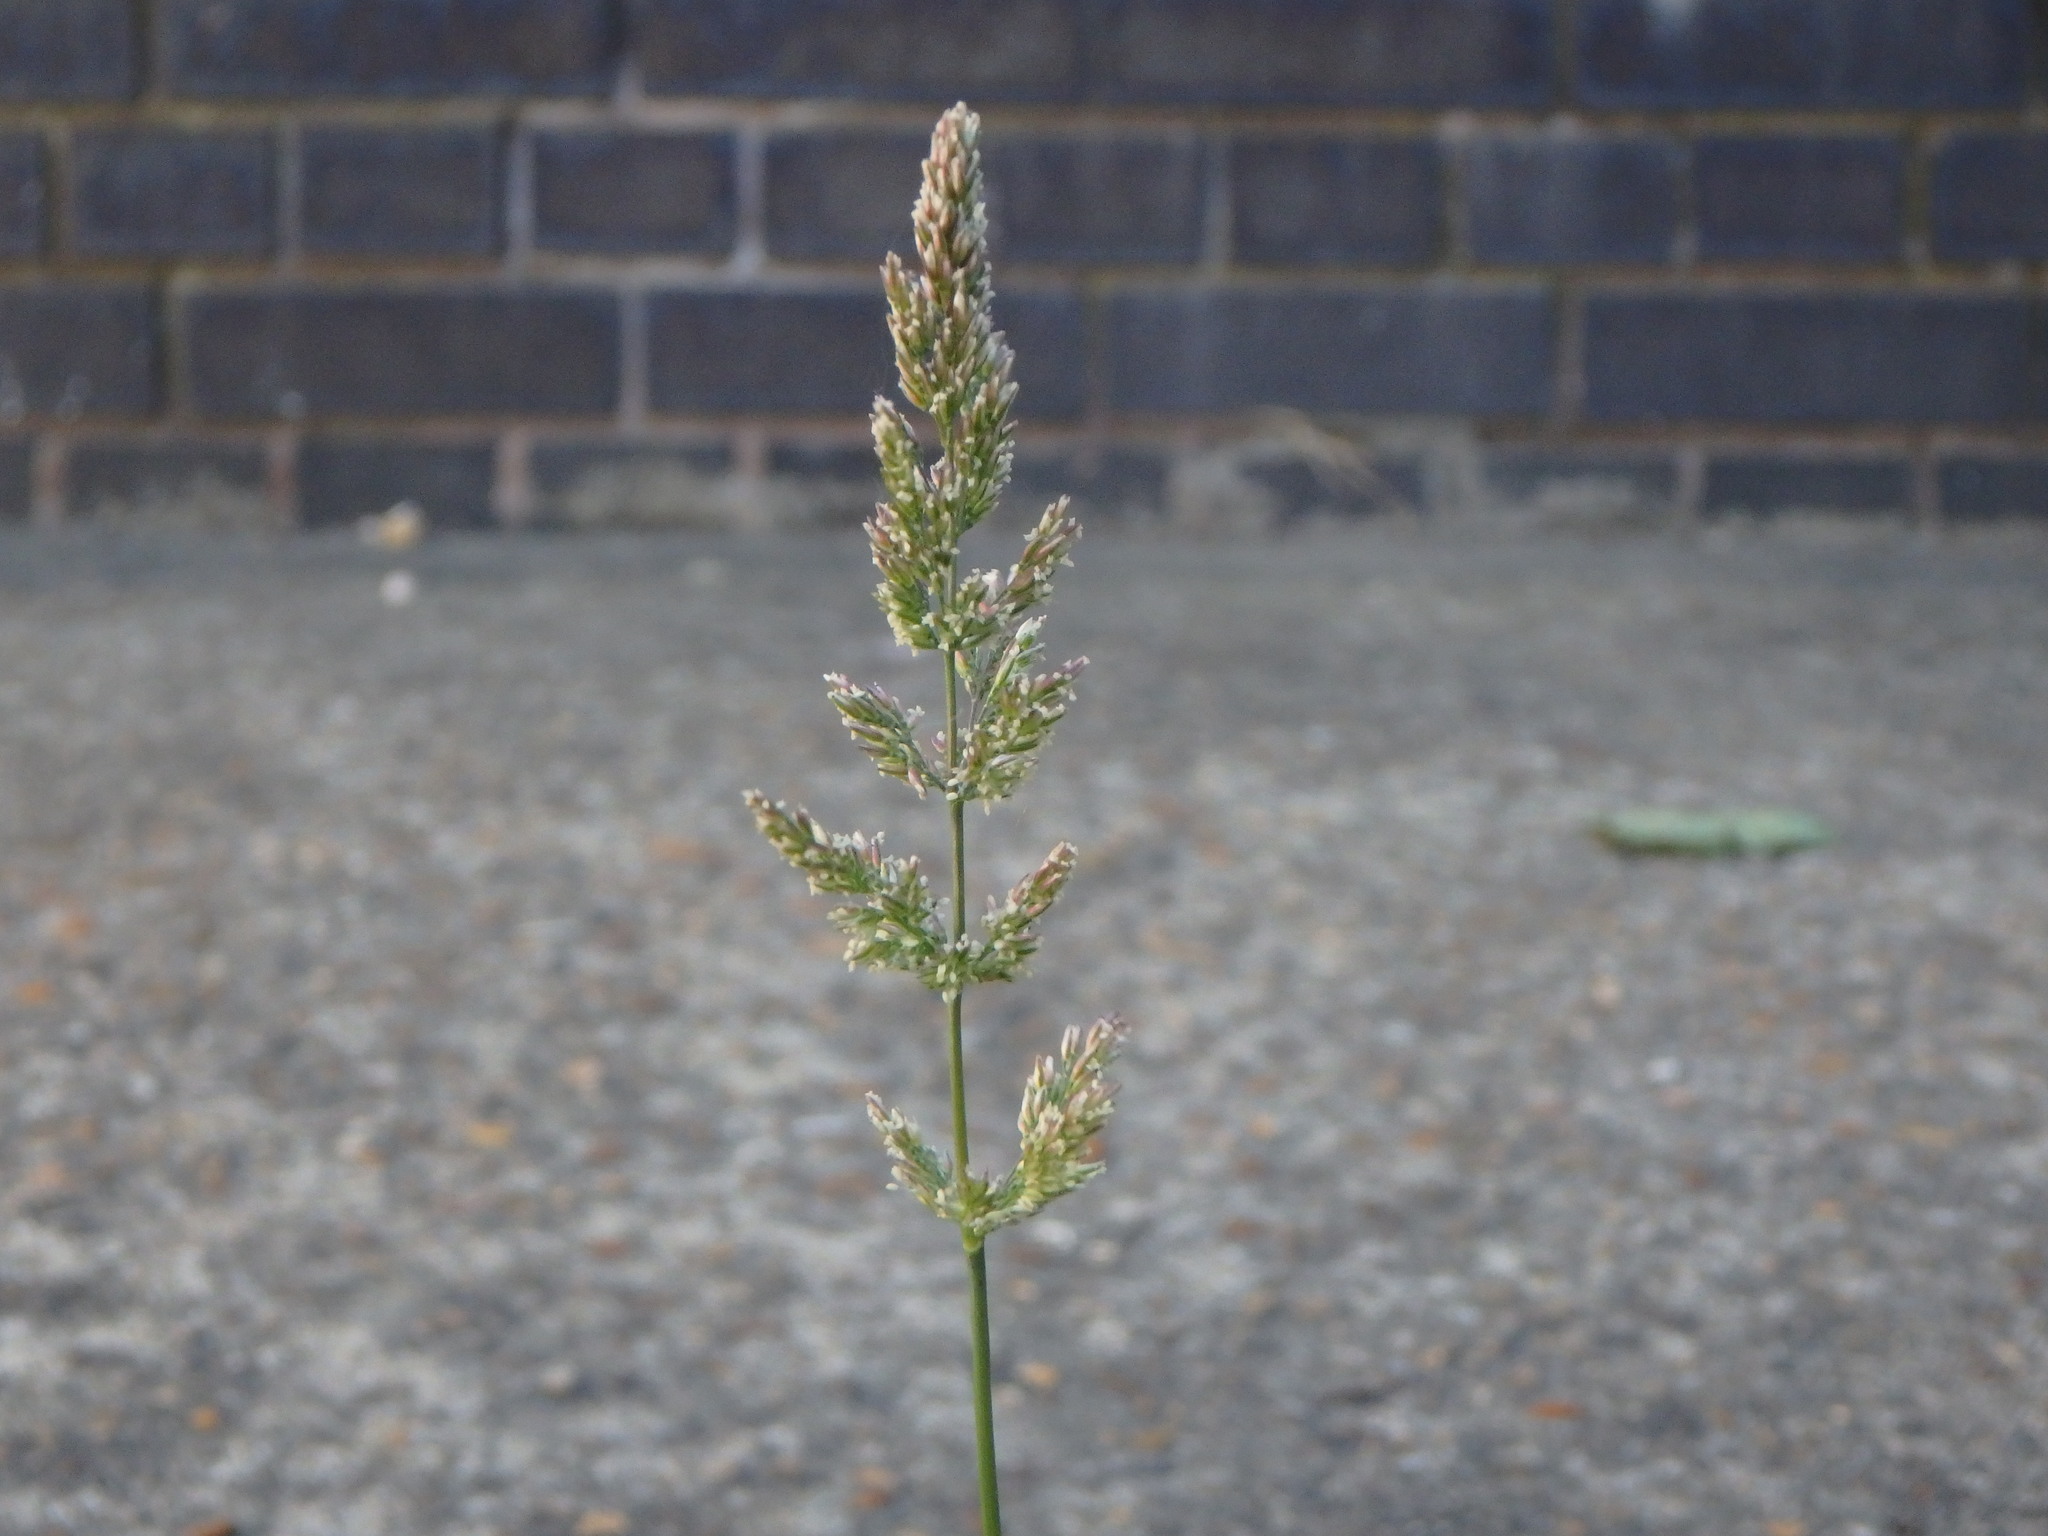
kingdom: Plantae
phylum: Tracheophyta
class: Liliopsida
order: Poales
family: Poaceae
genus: Polypogon
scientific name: Polypogon viridis
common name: Water bent
